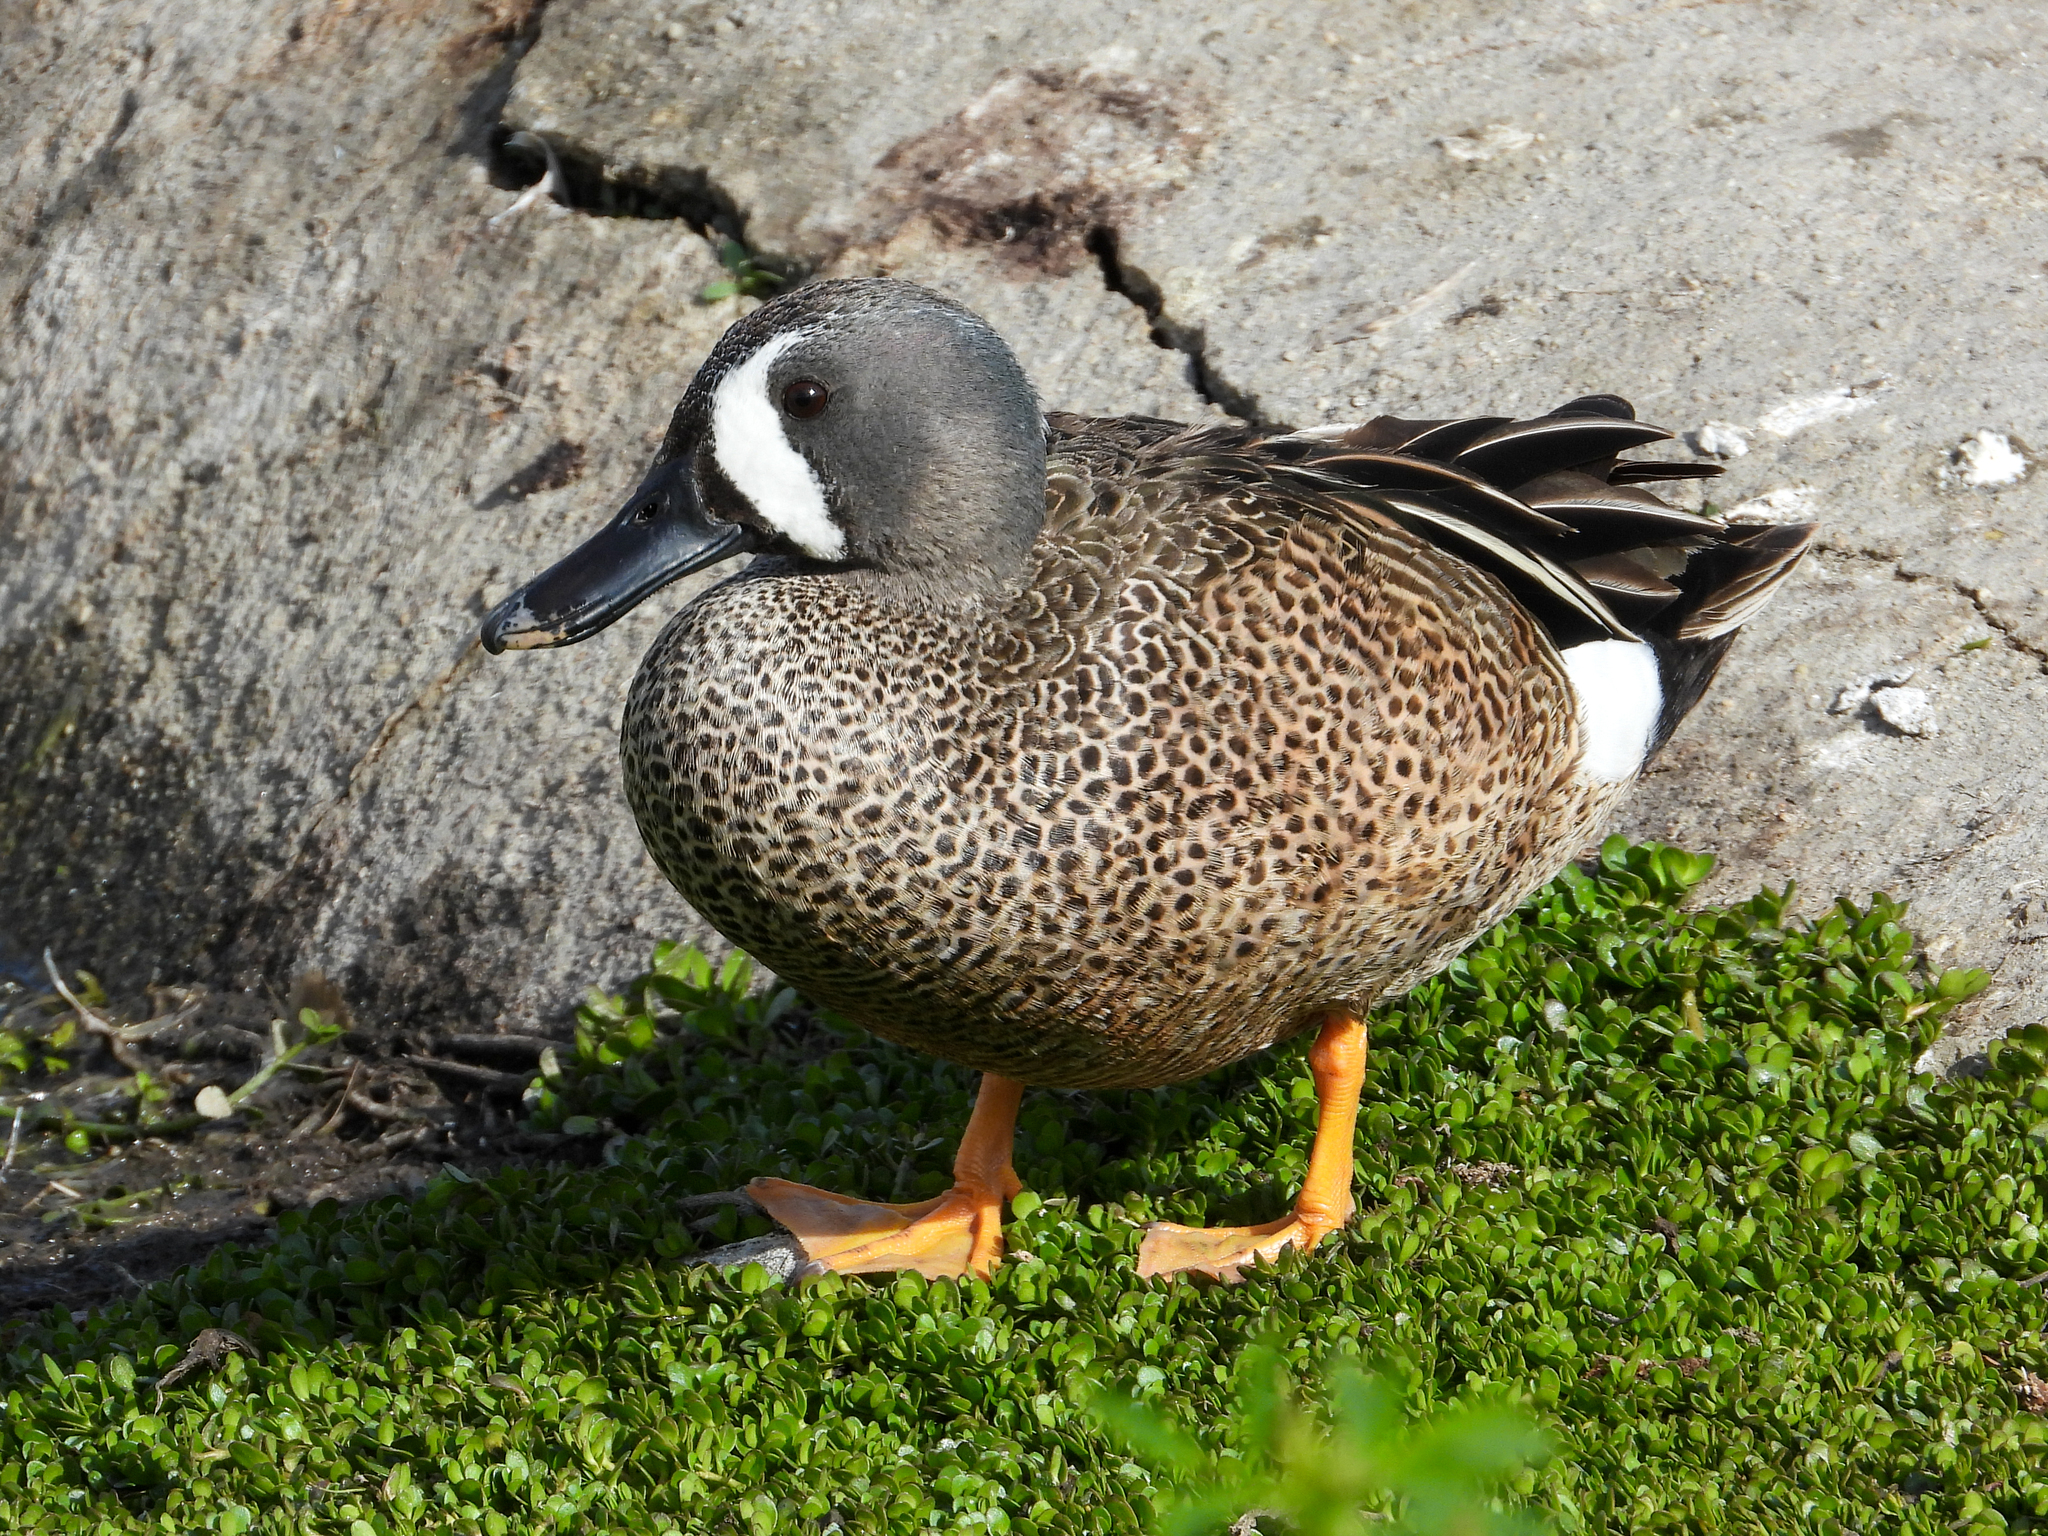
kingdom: Animalia
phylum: Chordata
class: Aves
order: Anseriformes
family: Anatidae
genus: Spatula
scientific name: Spatula discors
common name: Blue-winged teal
